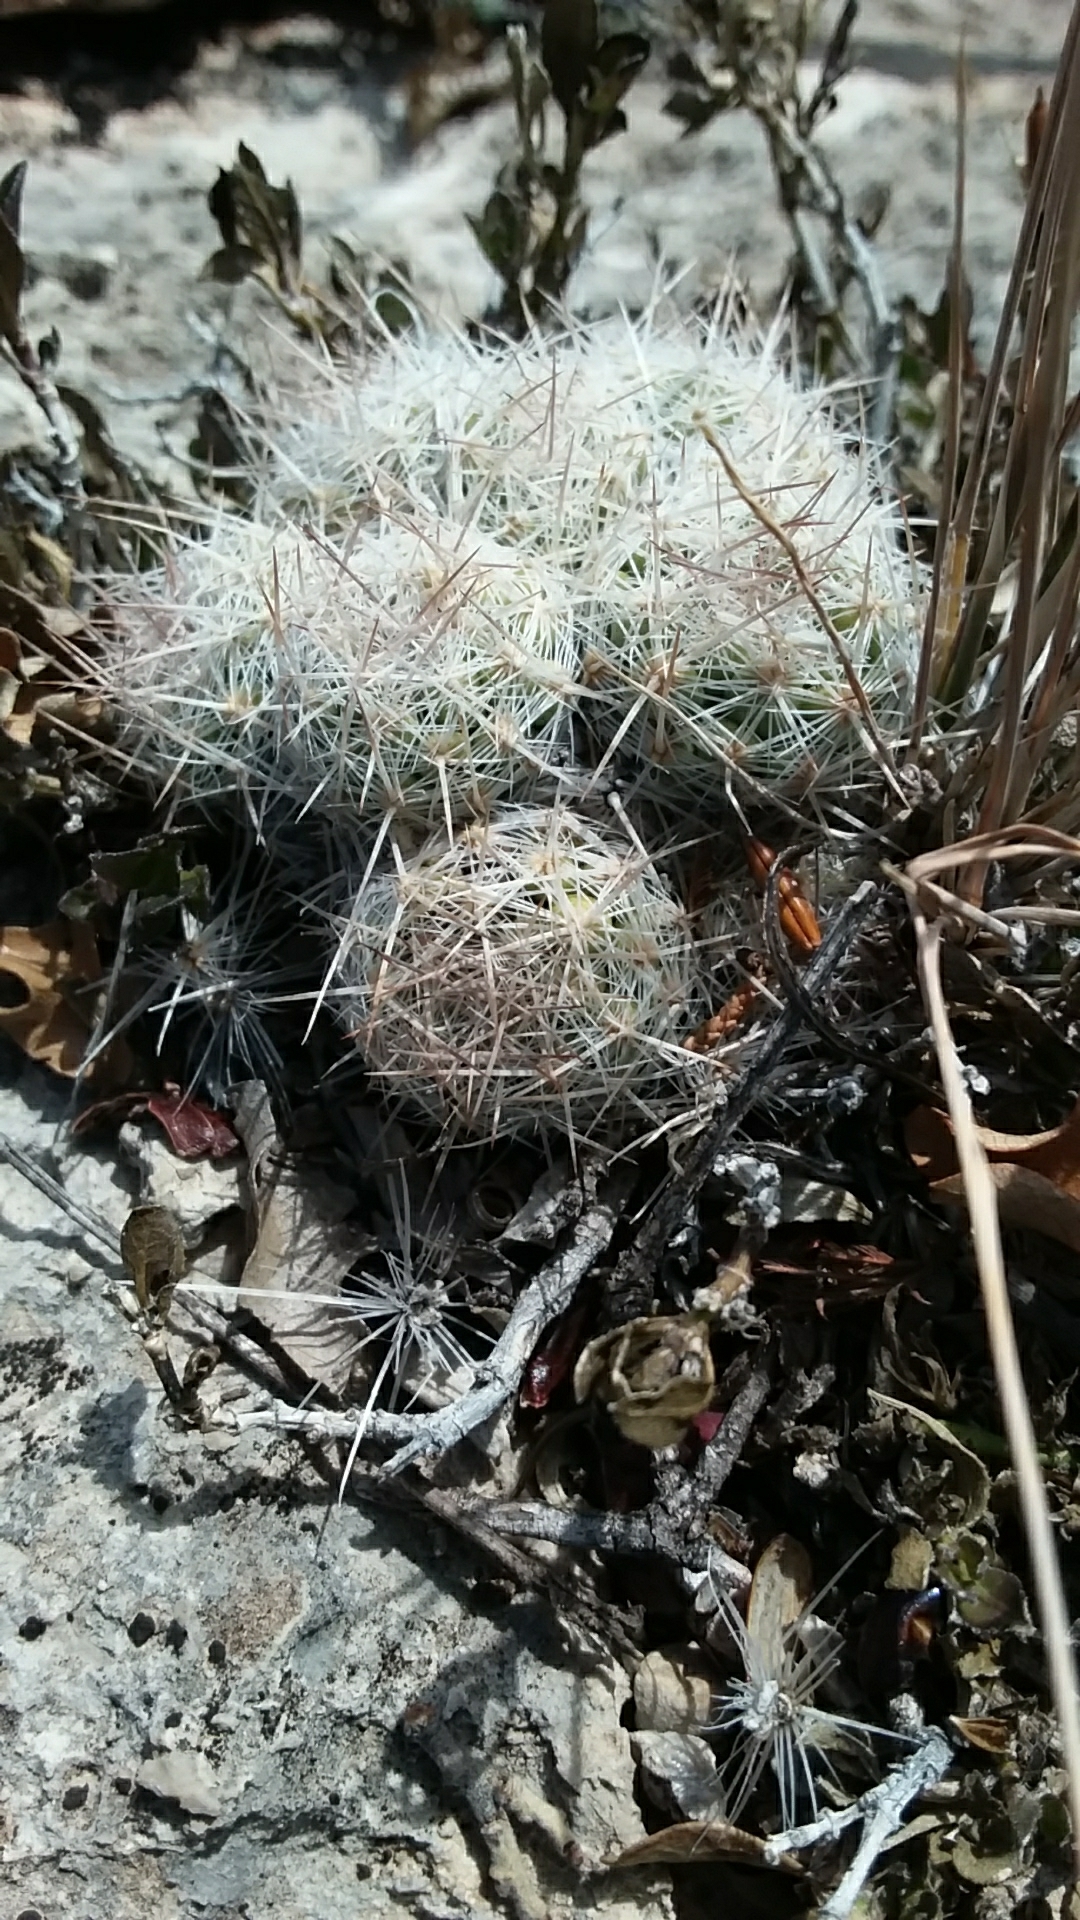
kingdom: Plantae
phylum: Tracheophyta
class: Magnoliopsida
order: Caryophyllales
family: Cactaceae
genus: Pelecyphora
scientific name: Pelecyphora tuberculosa
